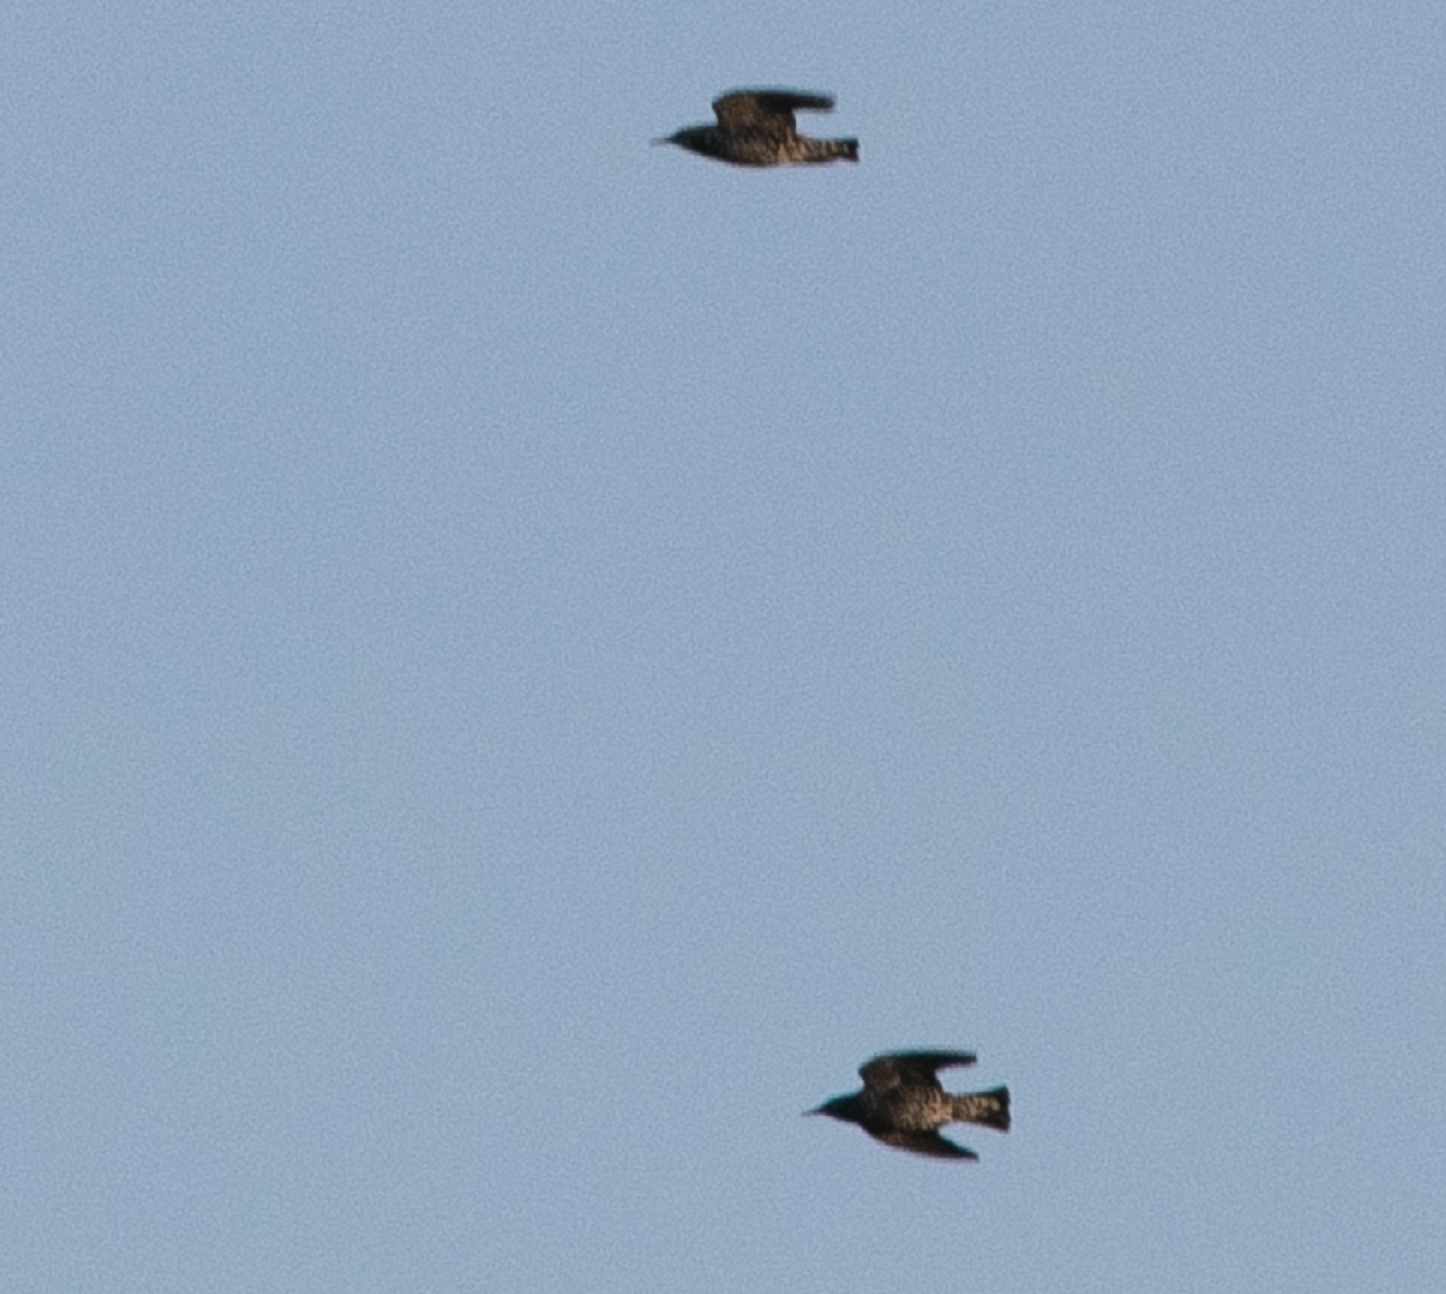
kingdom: Animalia
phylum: Chordata
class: Aves
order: Passeriformes
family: Sturnidae
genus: Sturnus
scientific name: Sturnus vulgaris
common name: Common starling
